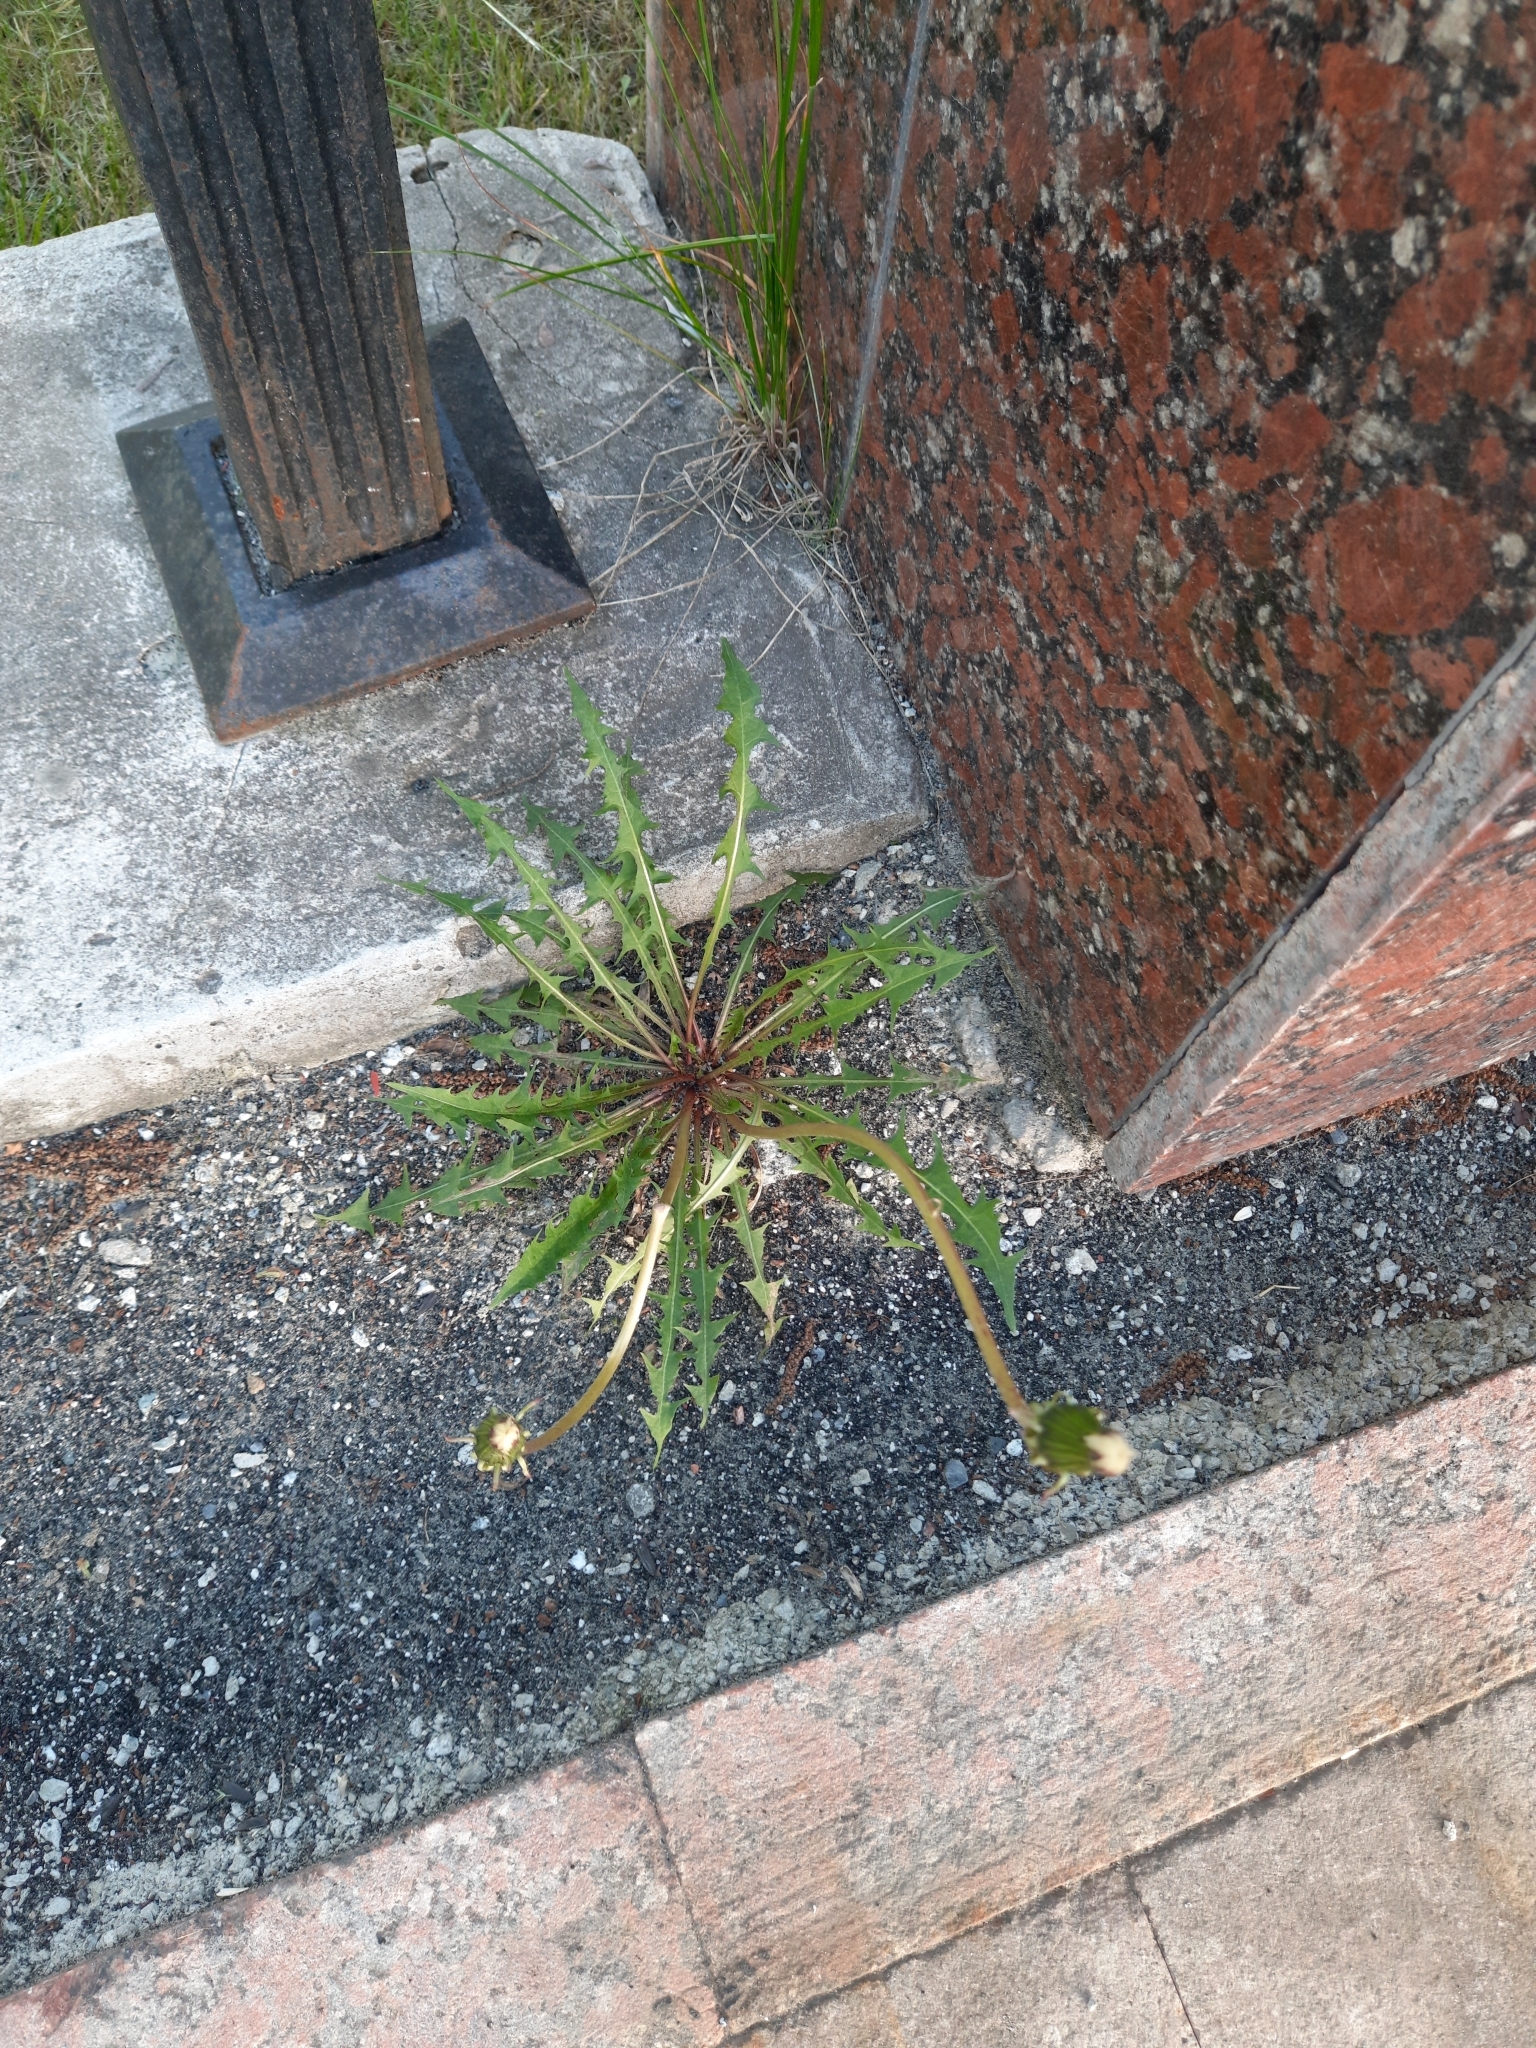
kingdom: Plantae
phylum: Tracheophyta
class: Magnoliopsida
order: Asterales
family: Asteraceae
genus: Taraxacum
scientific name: Taraxacum officinale
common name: Common dandelion
